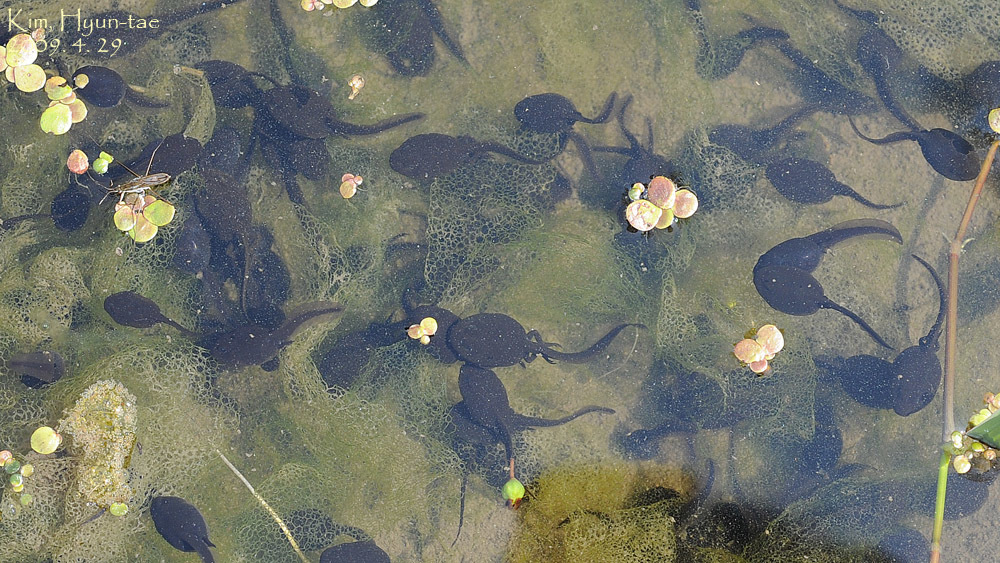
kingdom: Animalia
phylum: Chordata
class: Amphibia
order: Anura
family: Bufonidae
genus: Bufo
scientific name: Bufo gargarizans
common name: Asiatic toad
